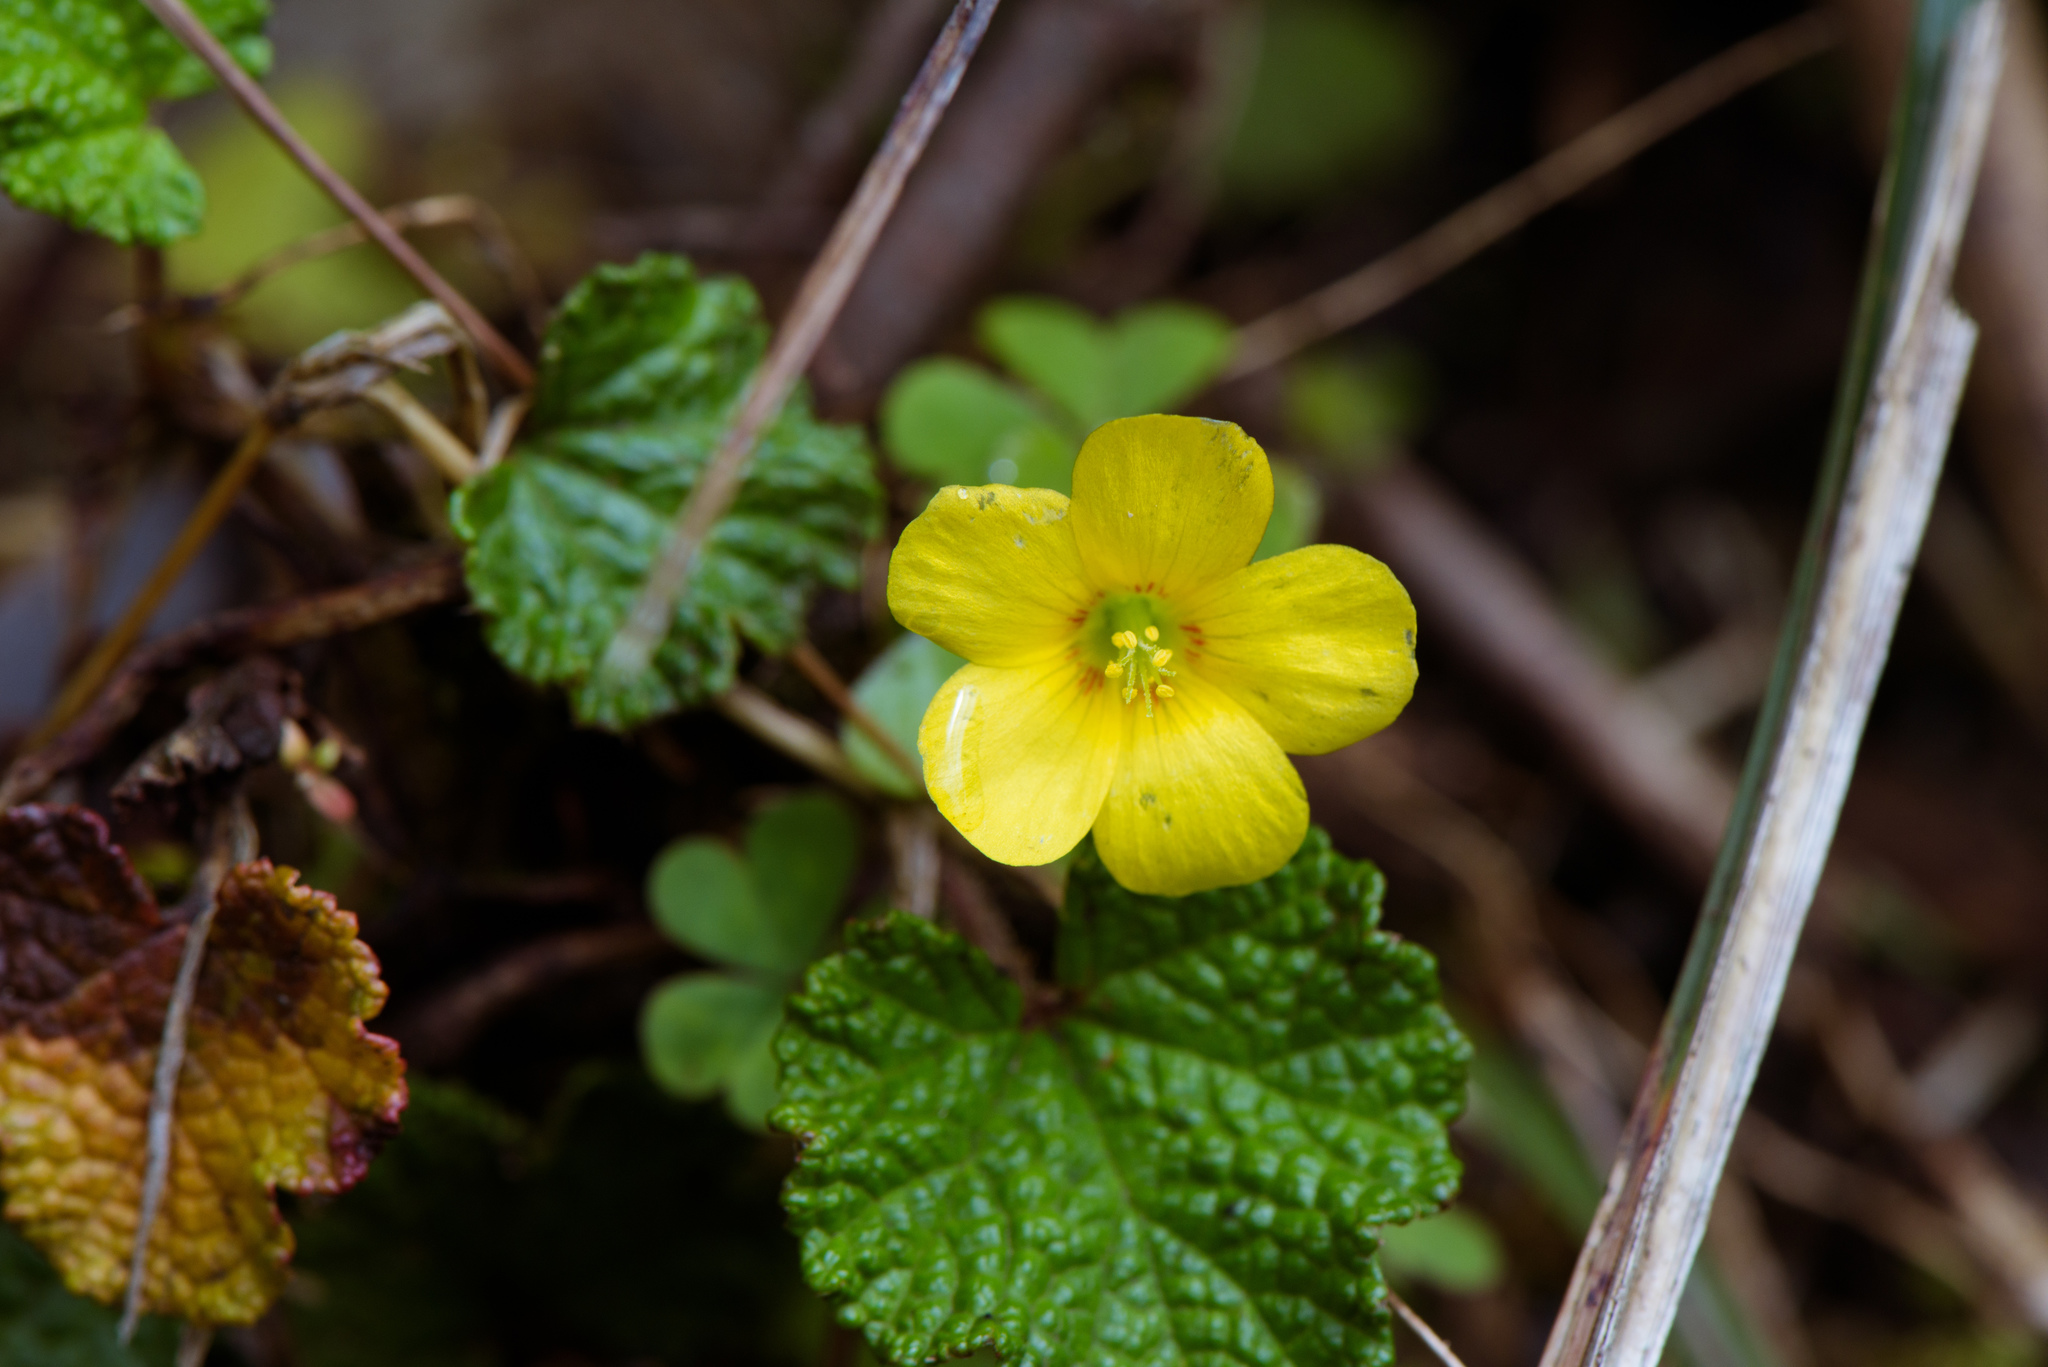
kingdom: Plantae
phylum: Tracheophyta
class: Magnoliopsida
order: Oxalidales
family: Oxalidaceae
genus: Oxalis
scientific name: Oxalis corniculata
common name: Procumbent yellow-sorrel
